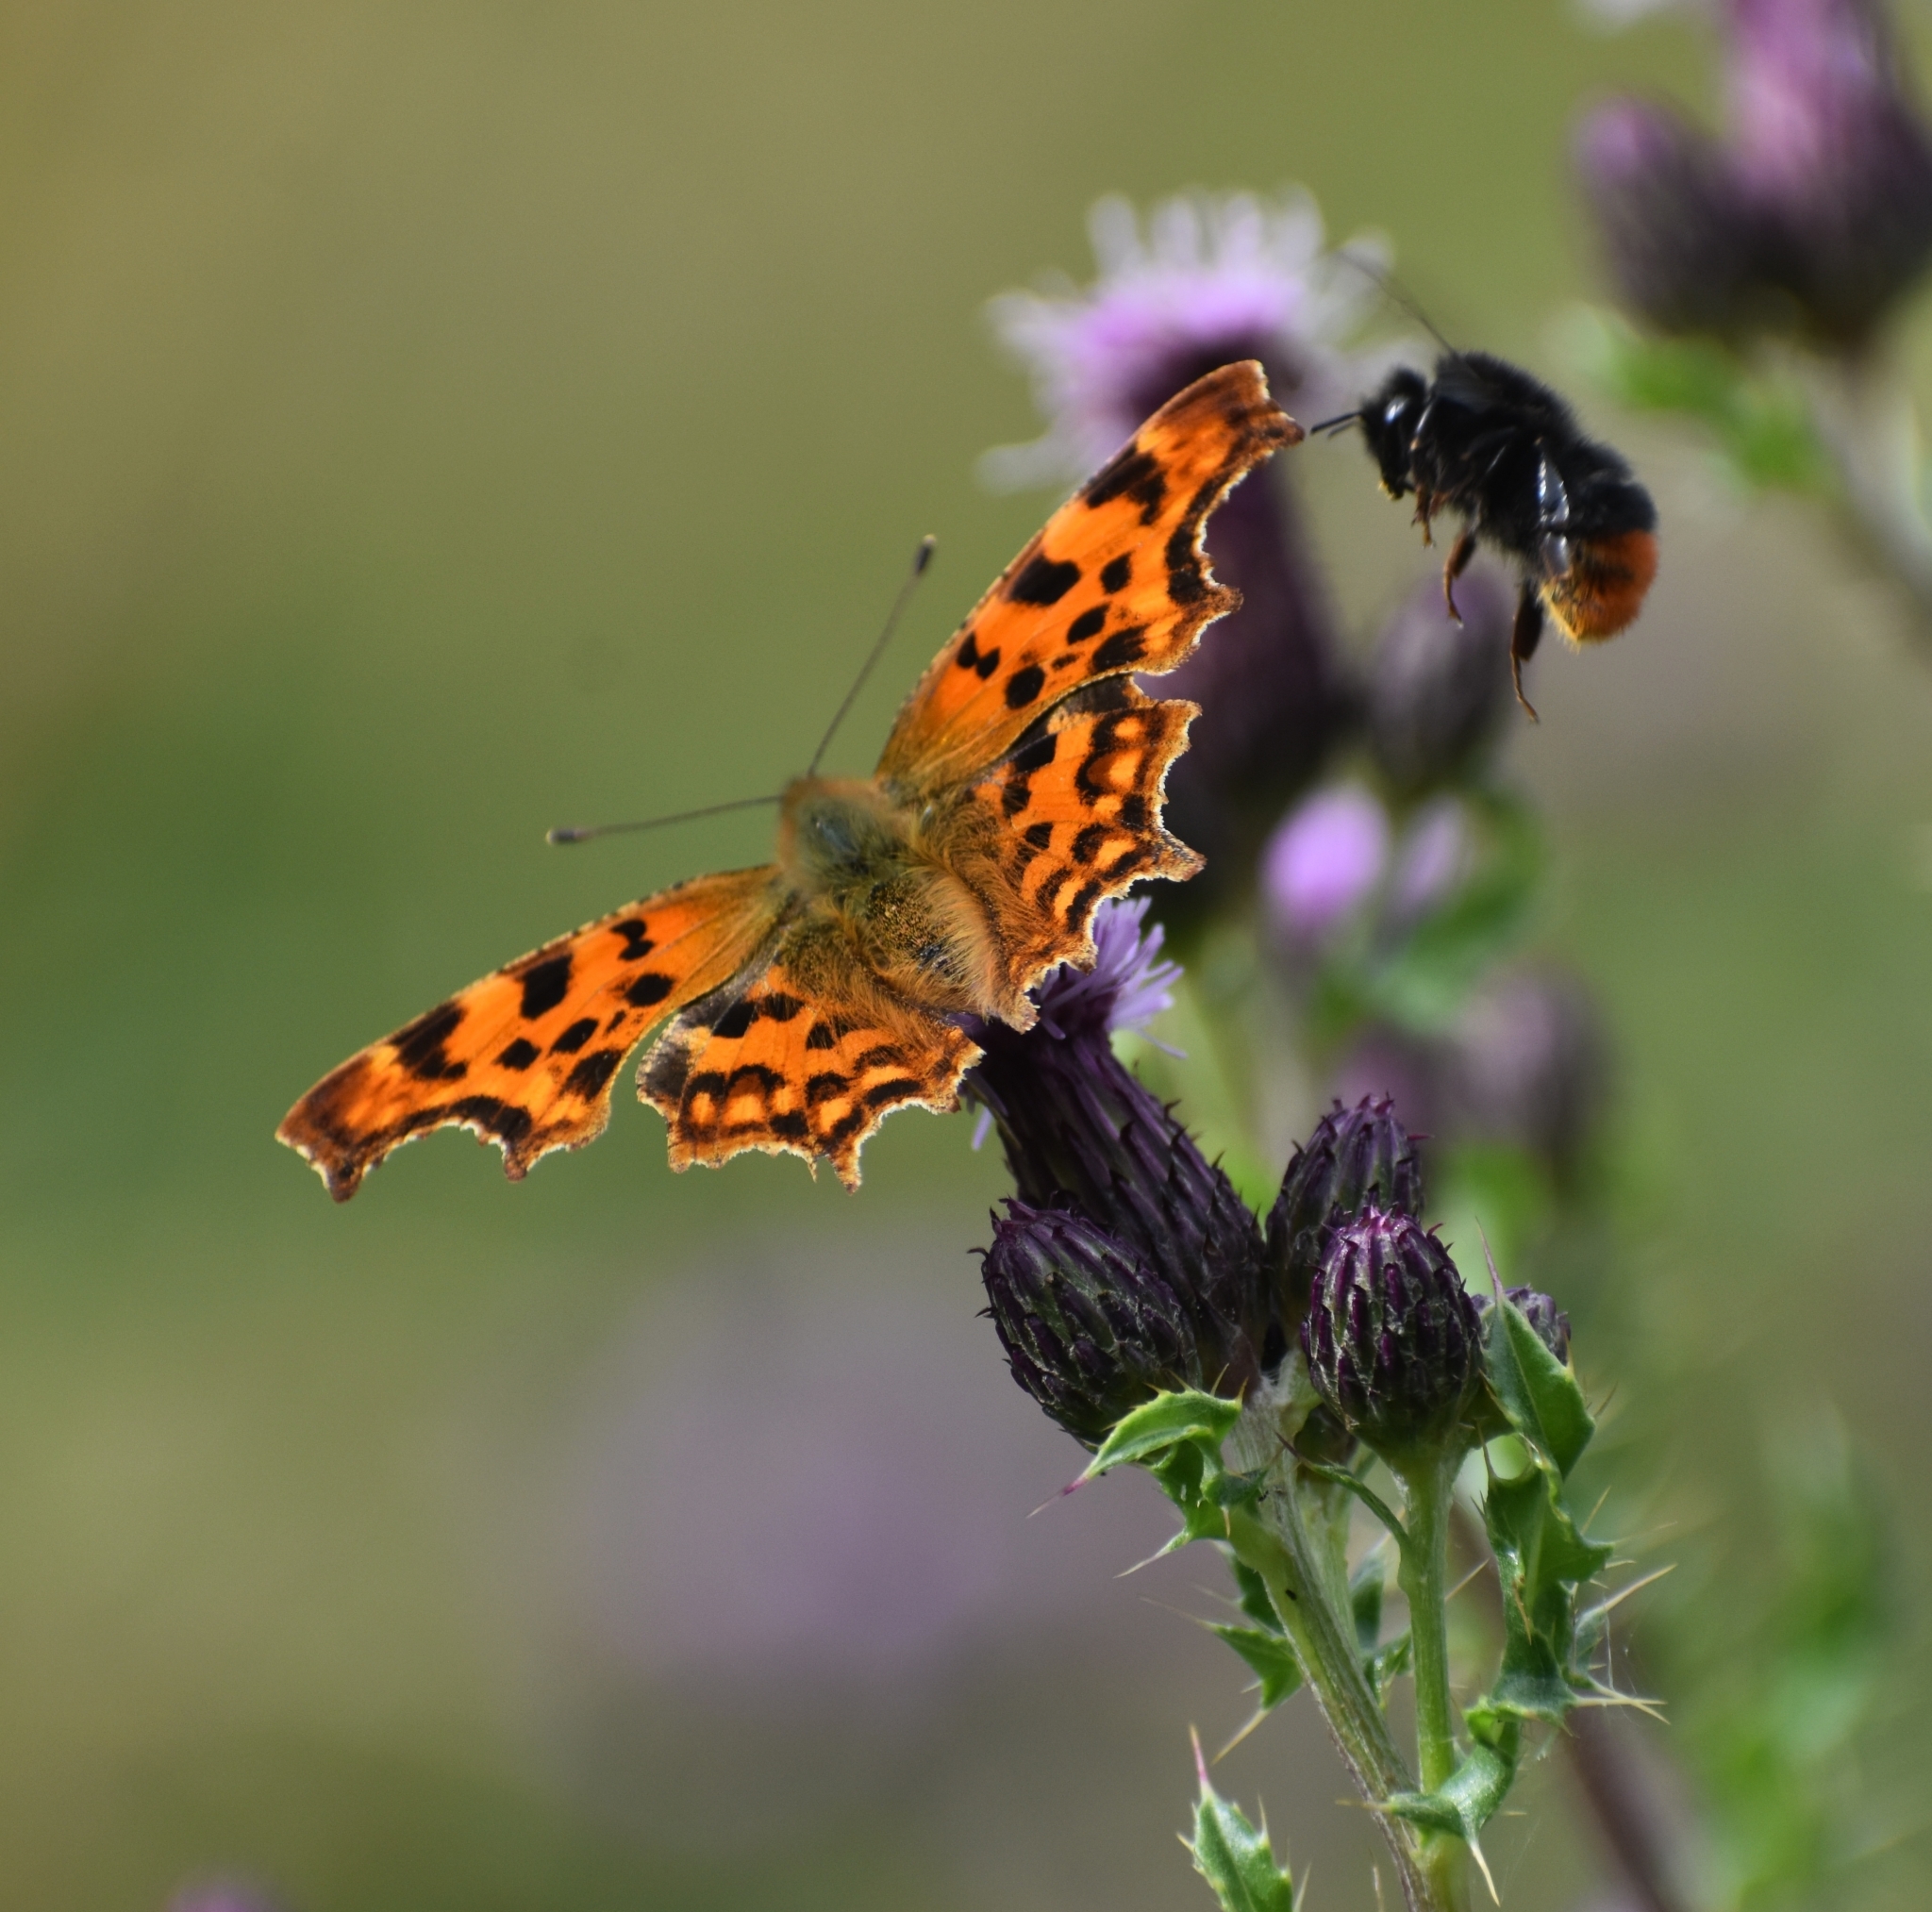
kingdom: Animalia
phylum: Arthropoda
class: Insecta
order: Lepidoptera
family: Nymphalidae
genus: Polygonia
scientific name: Polygonia c-album
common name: Comma
